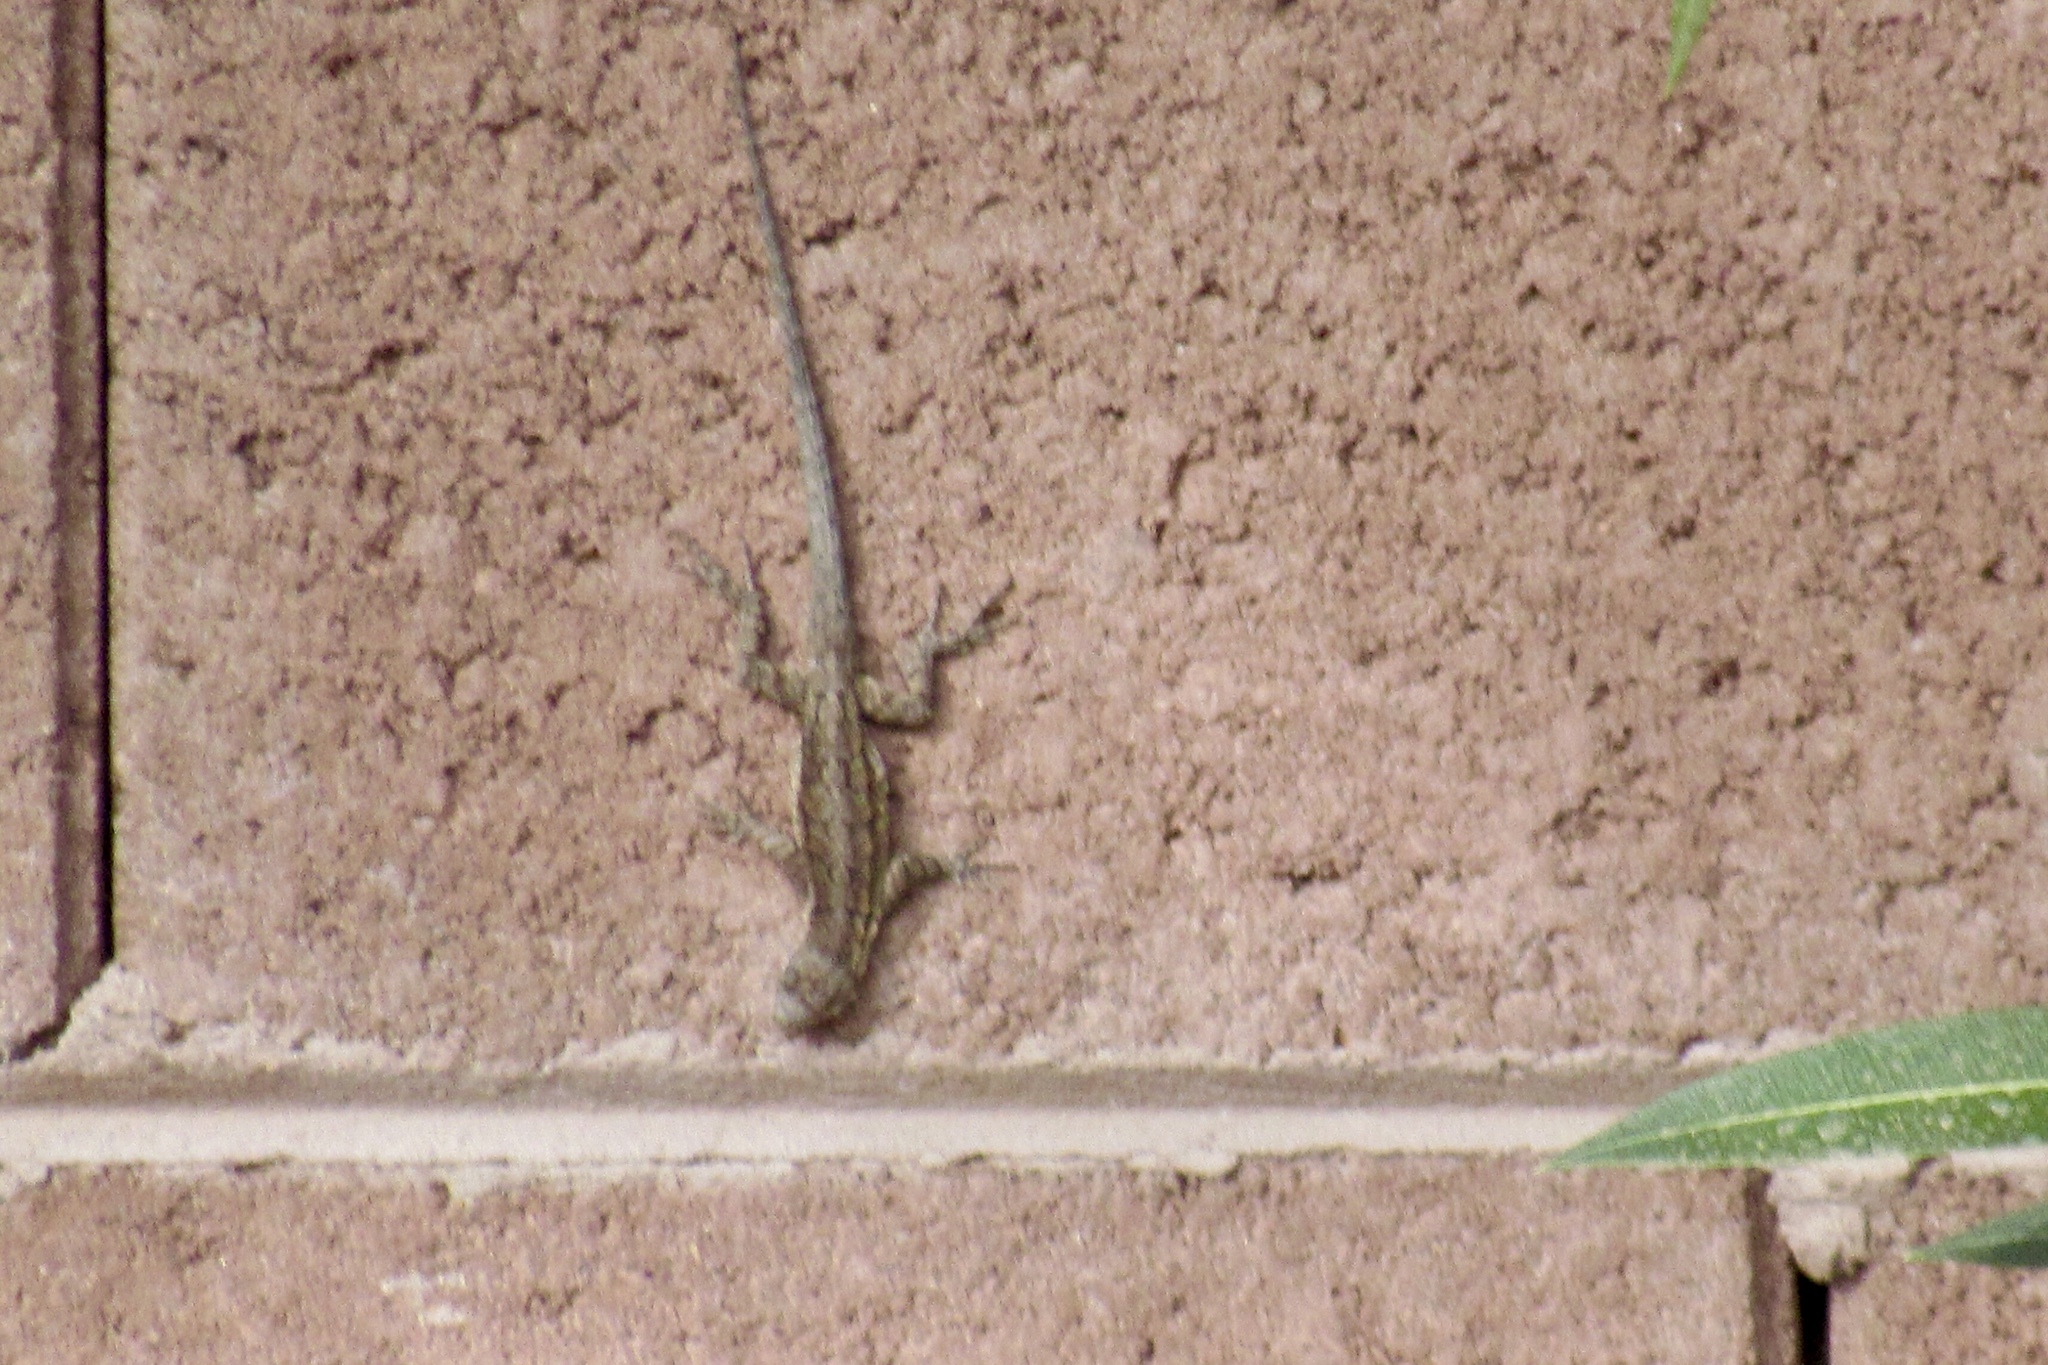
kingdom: Animalia
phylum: Chordata
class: Squamata
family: Phrynosomatidae
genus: Urosaurus
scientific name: Urosaurus ornatus
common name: Ornate tree lizard
